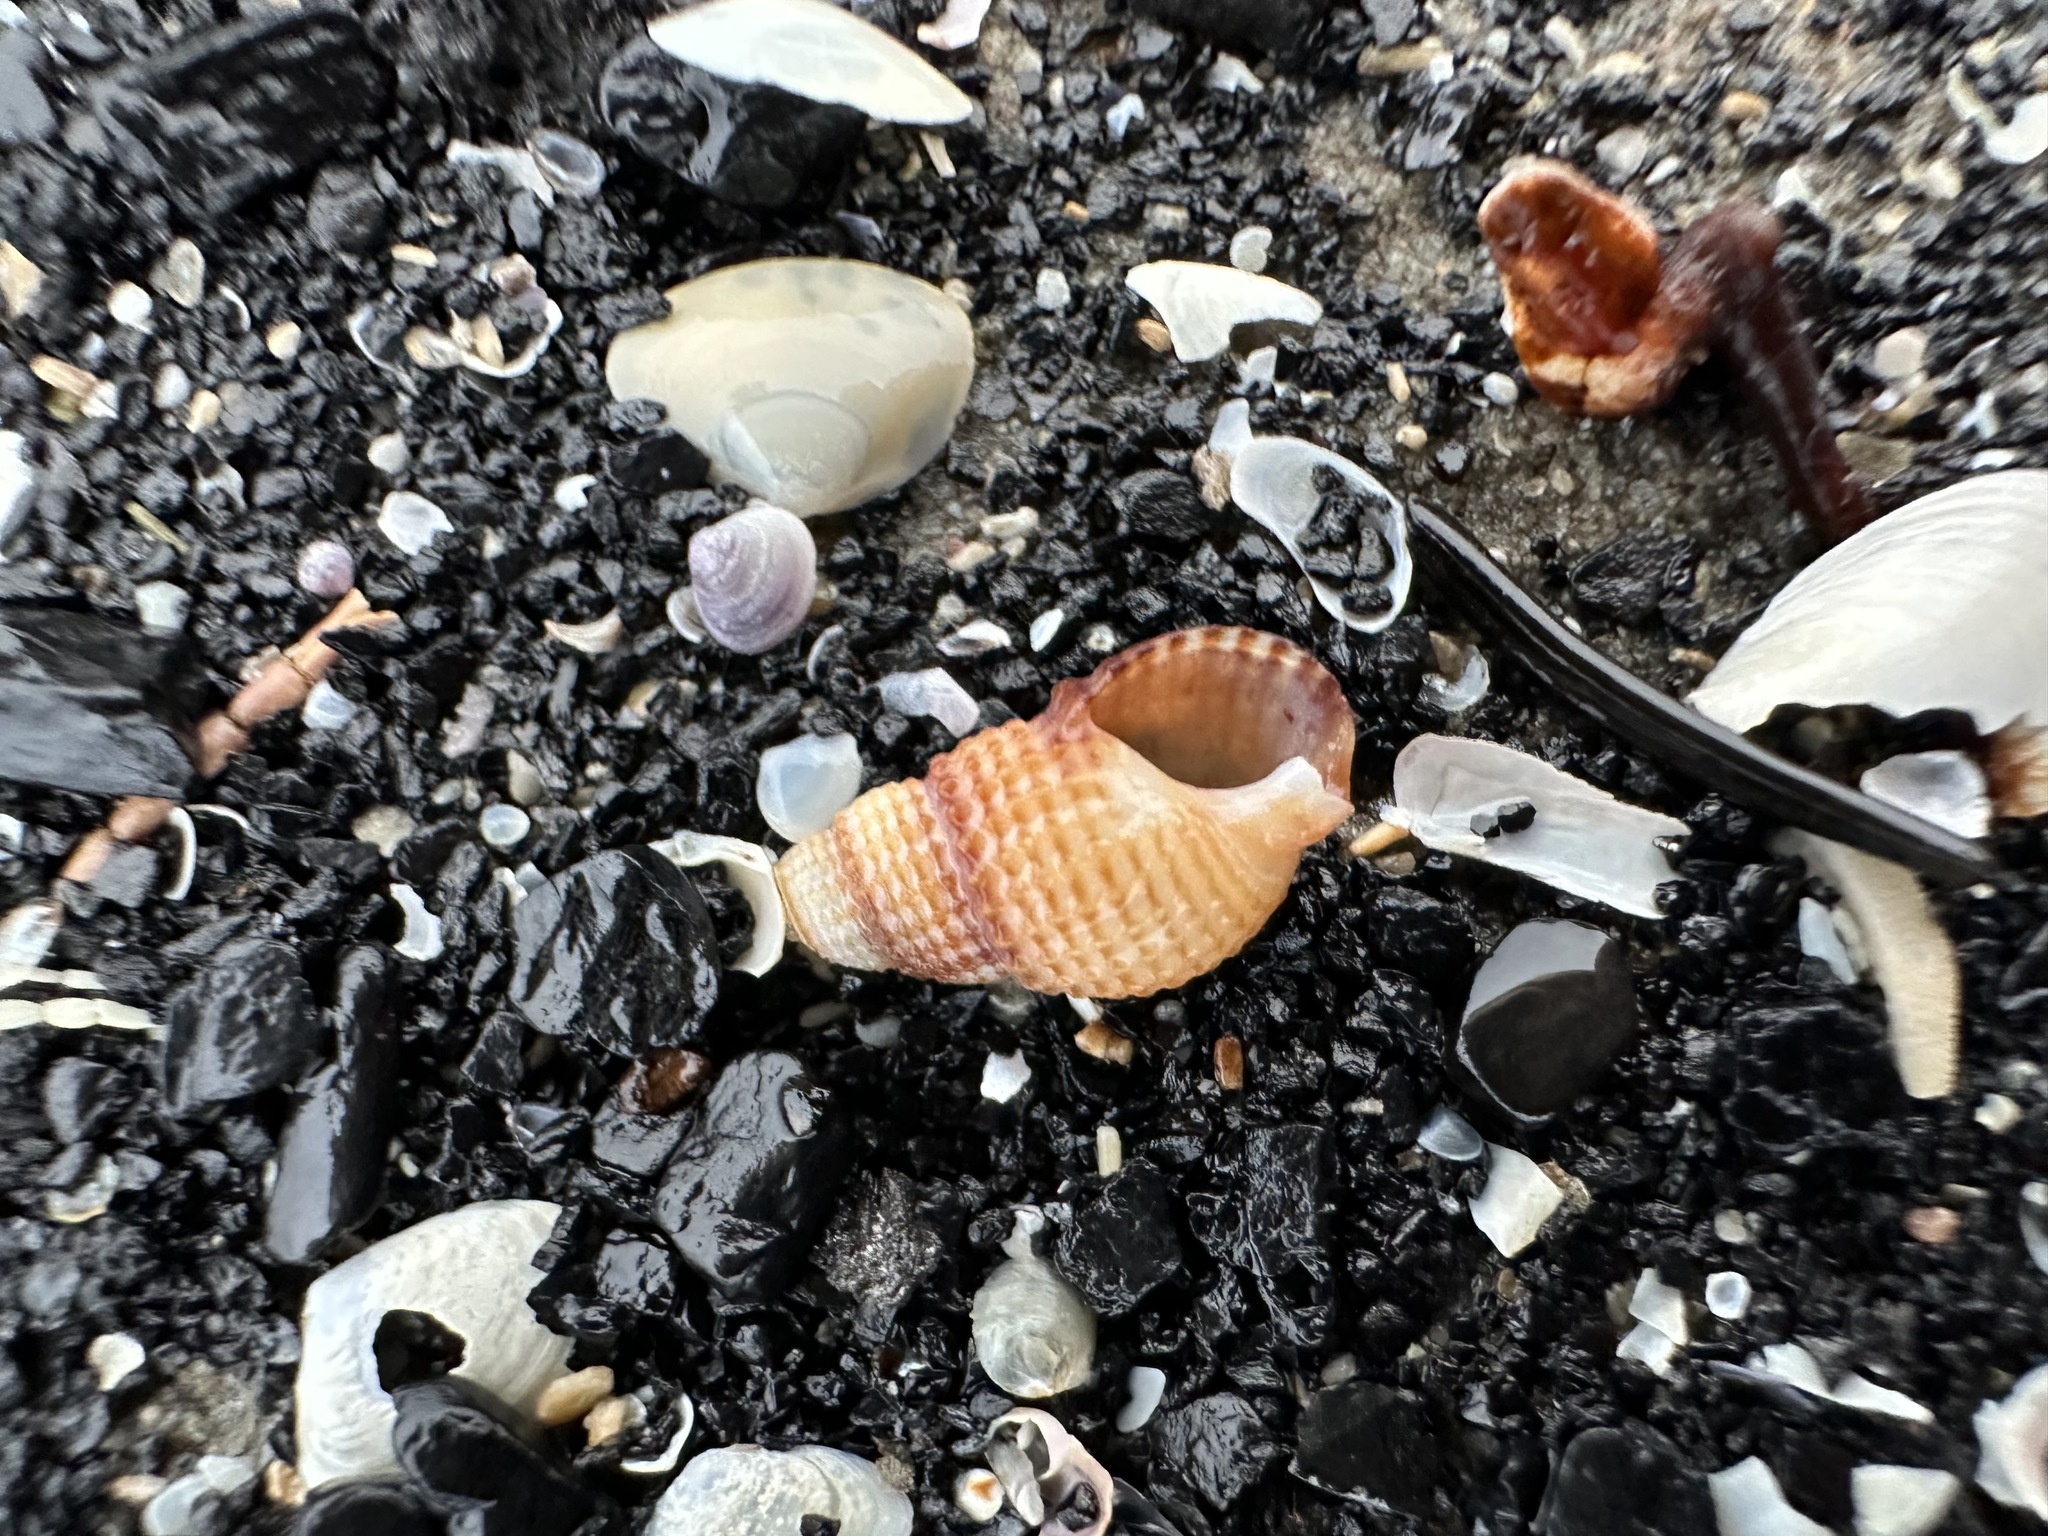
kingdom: Animalia
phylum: Mollusca
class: Gastropoda
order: Neogastropoda
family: Nassariidae
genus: Ilyanassa
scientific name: Ilyanassa trivittata
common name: Three-line mudsnail
